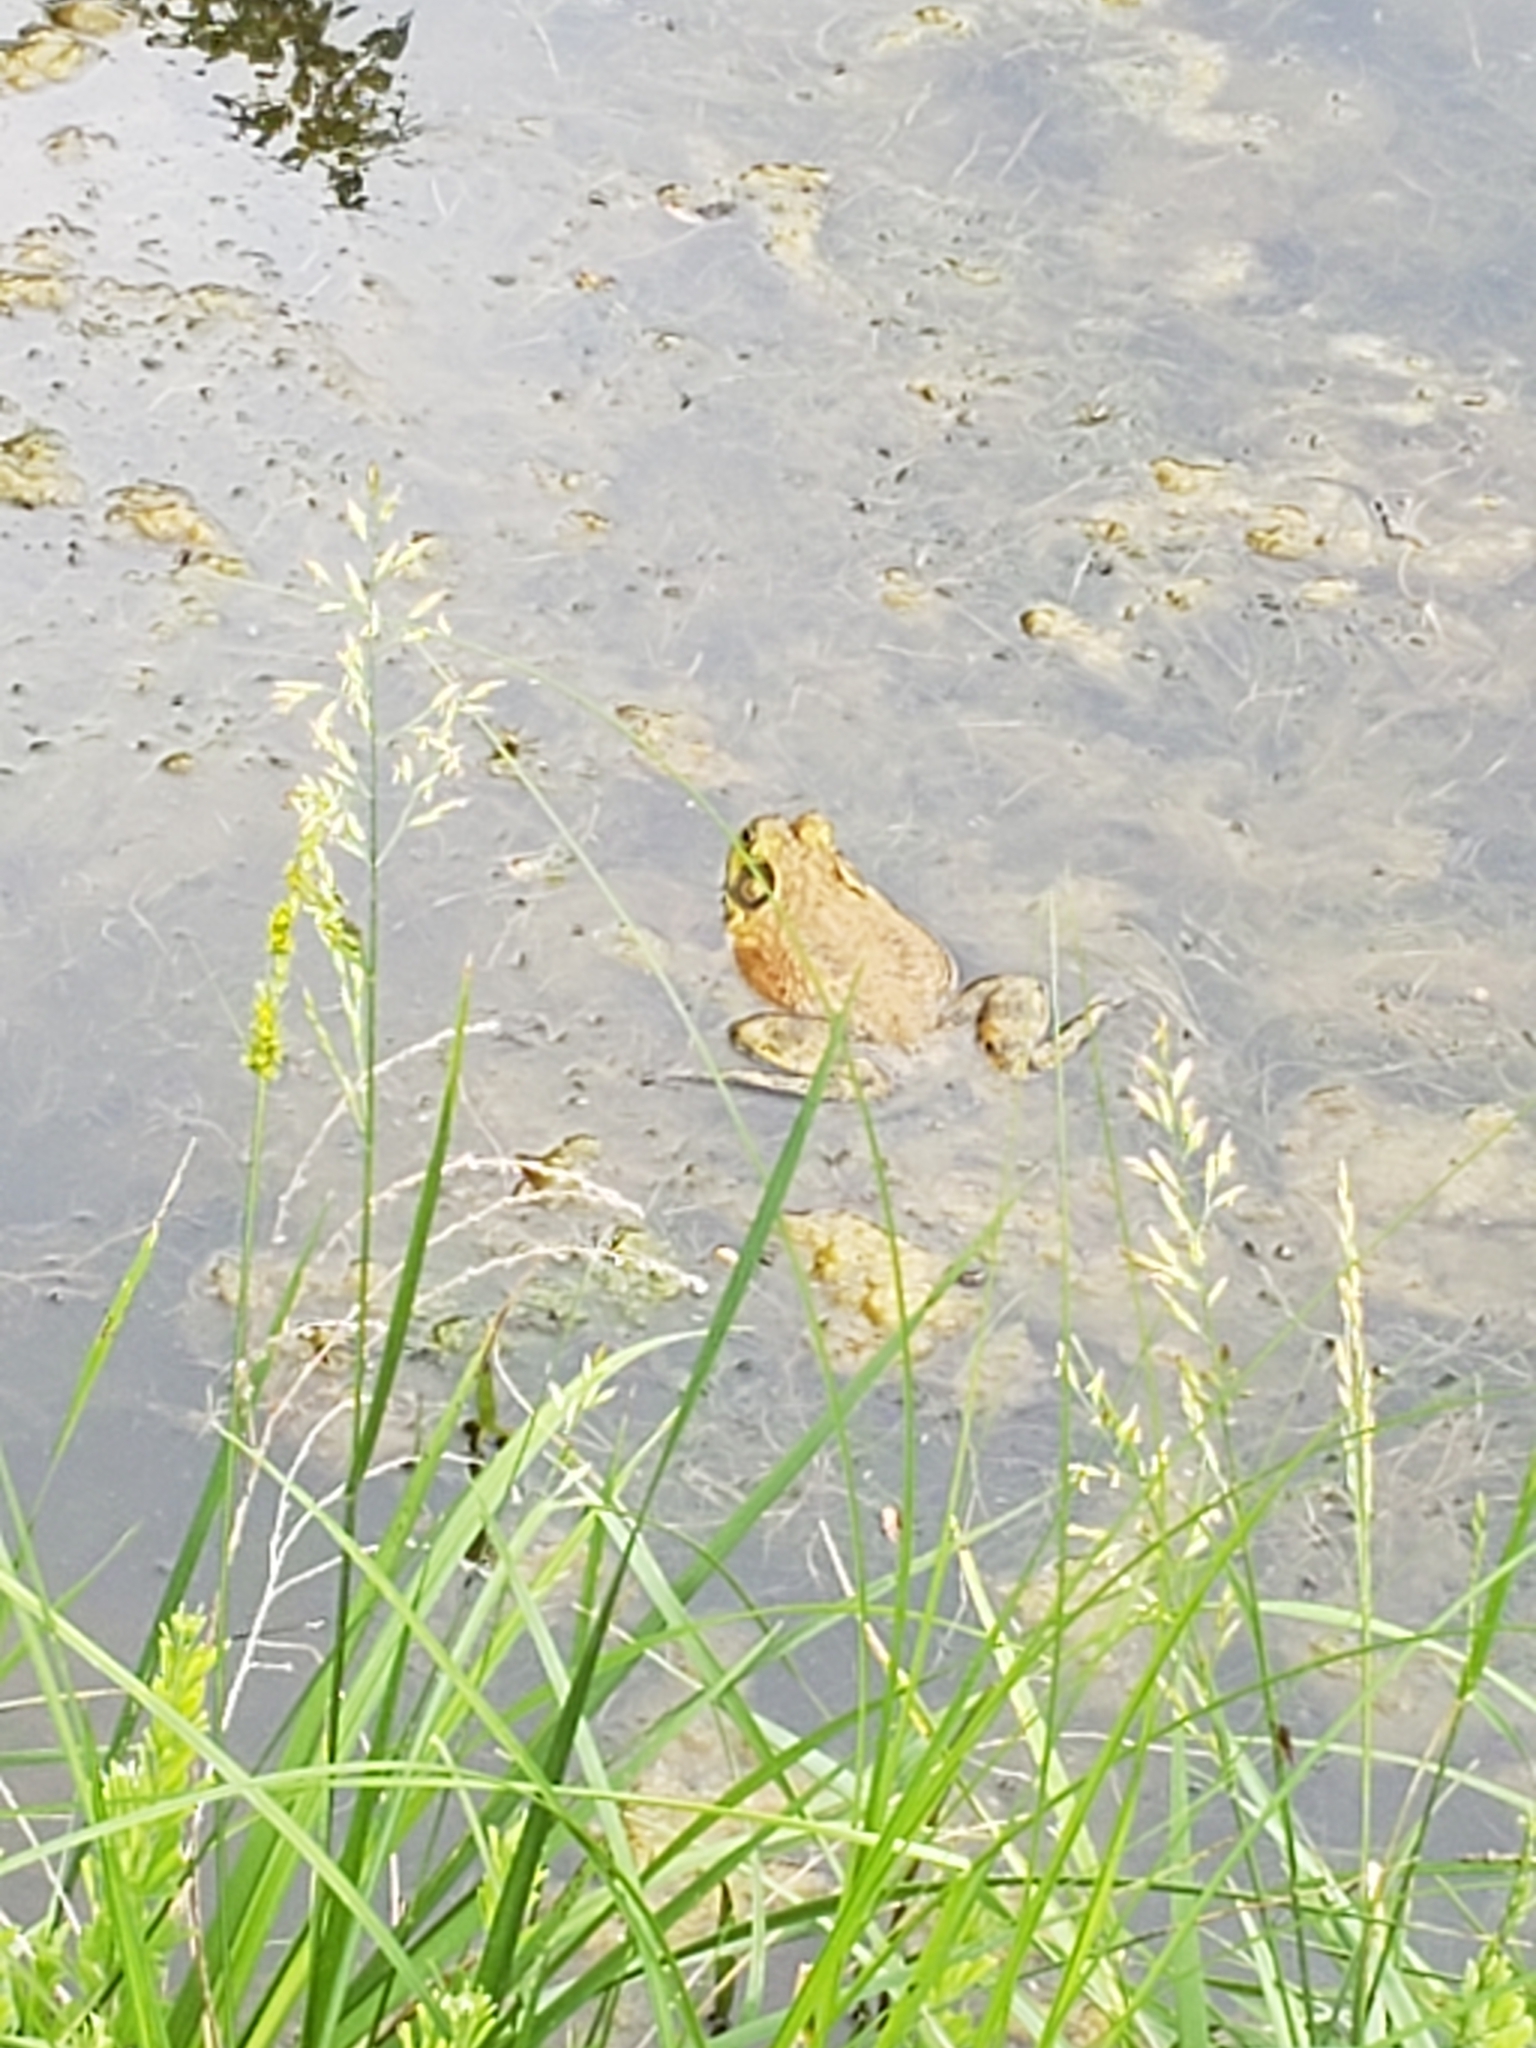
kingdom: Animalia
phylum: Chordata
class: Amphibia
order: Anura
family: Ranidae
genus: Lithobates
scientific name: Lithobates catesbeianus
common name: American bullfrog
